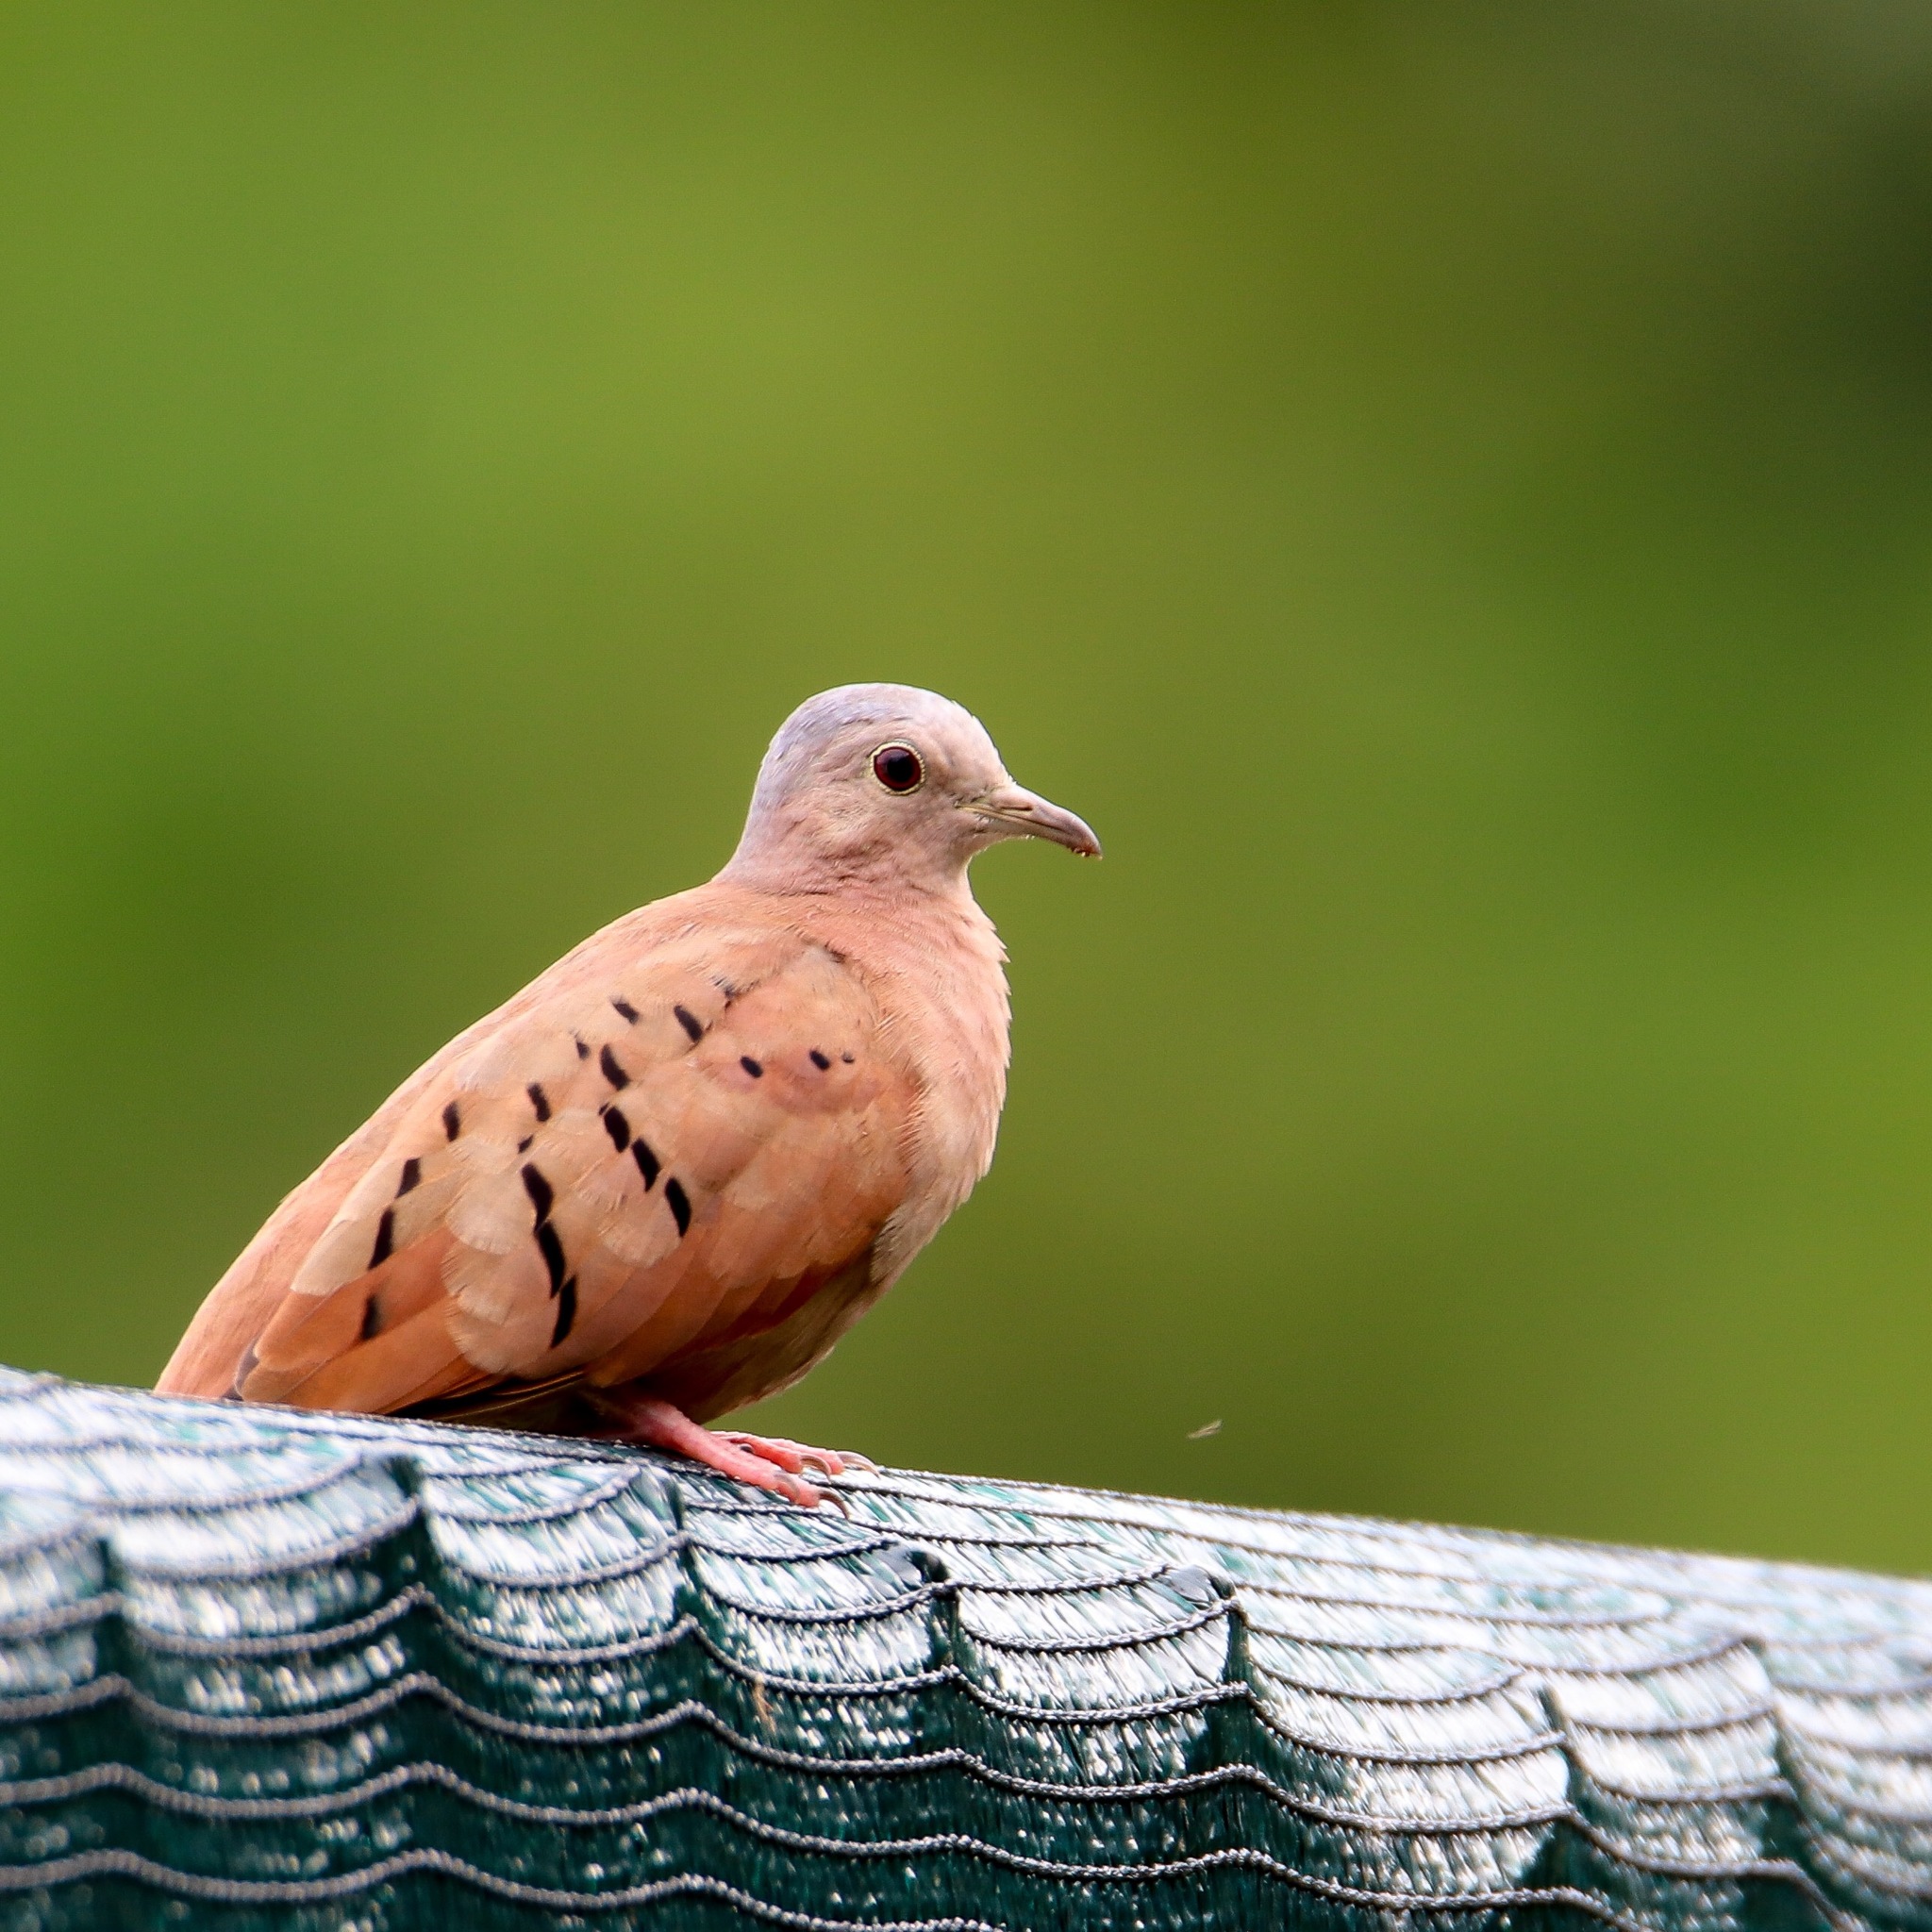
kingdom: Animalia
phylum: Chordata
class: Aves
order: Columbiformes
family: Columbidae
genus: Columbina
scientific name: Columbina talpacoti
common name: Ruddy ground dove
